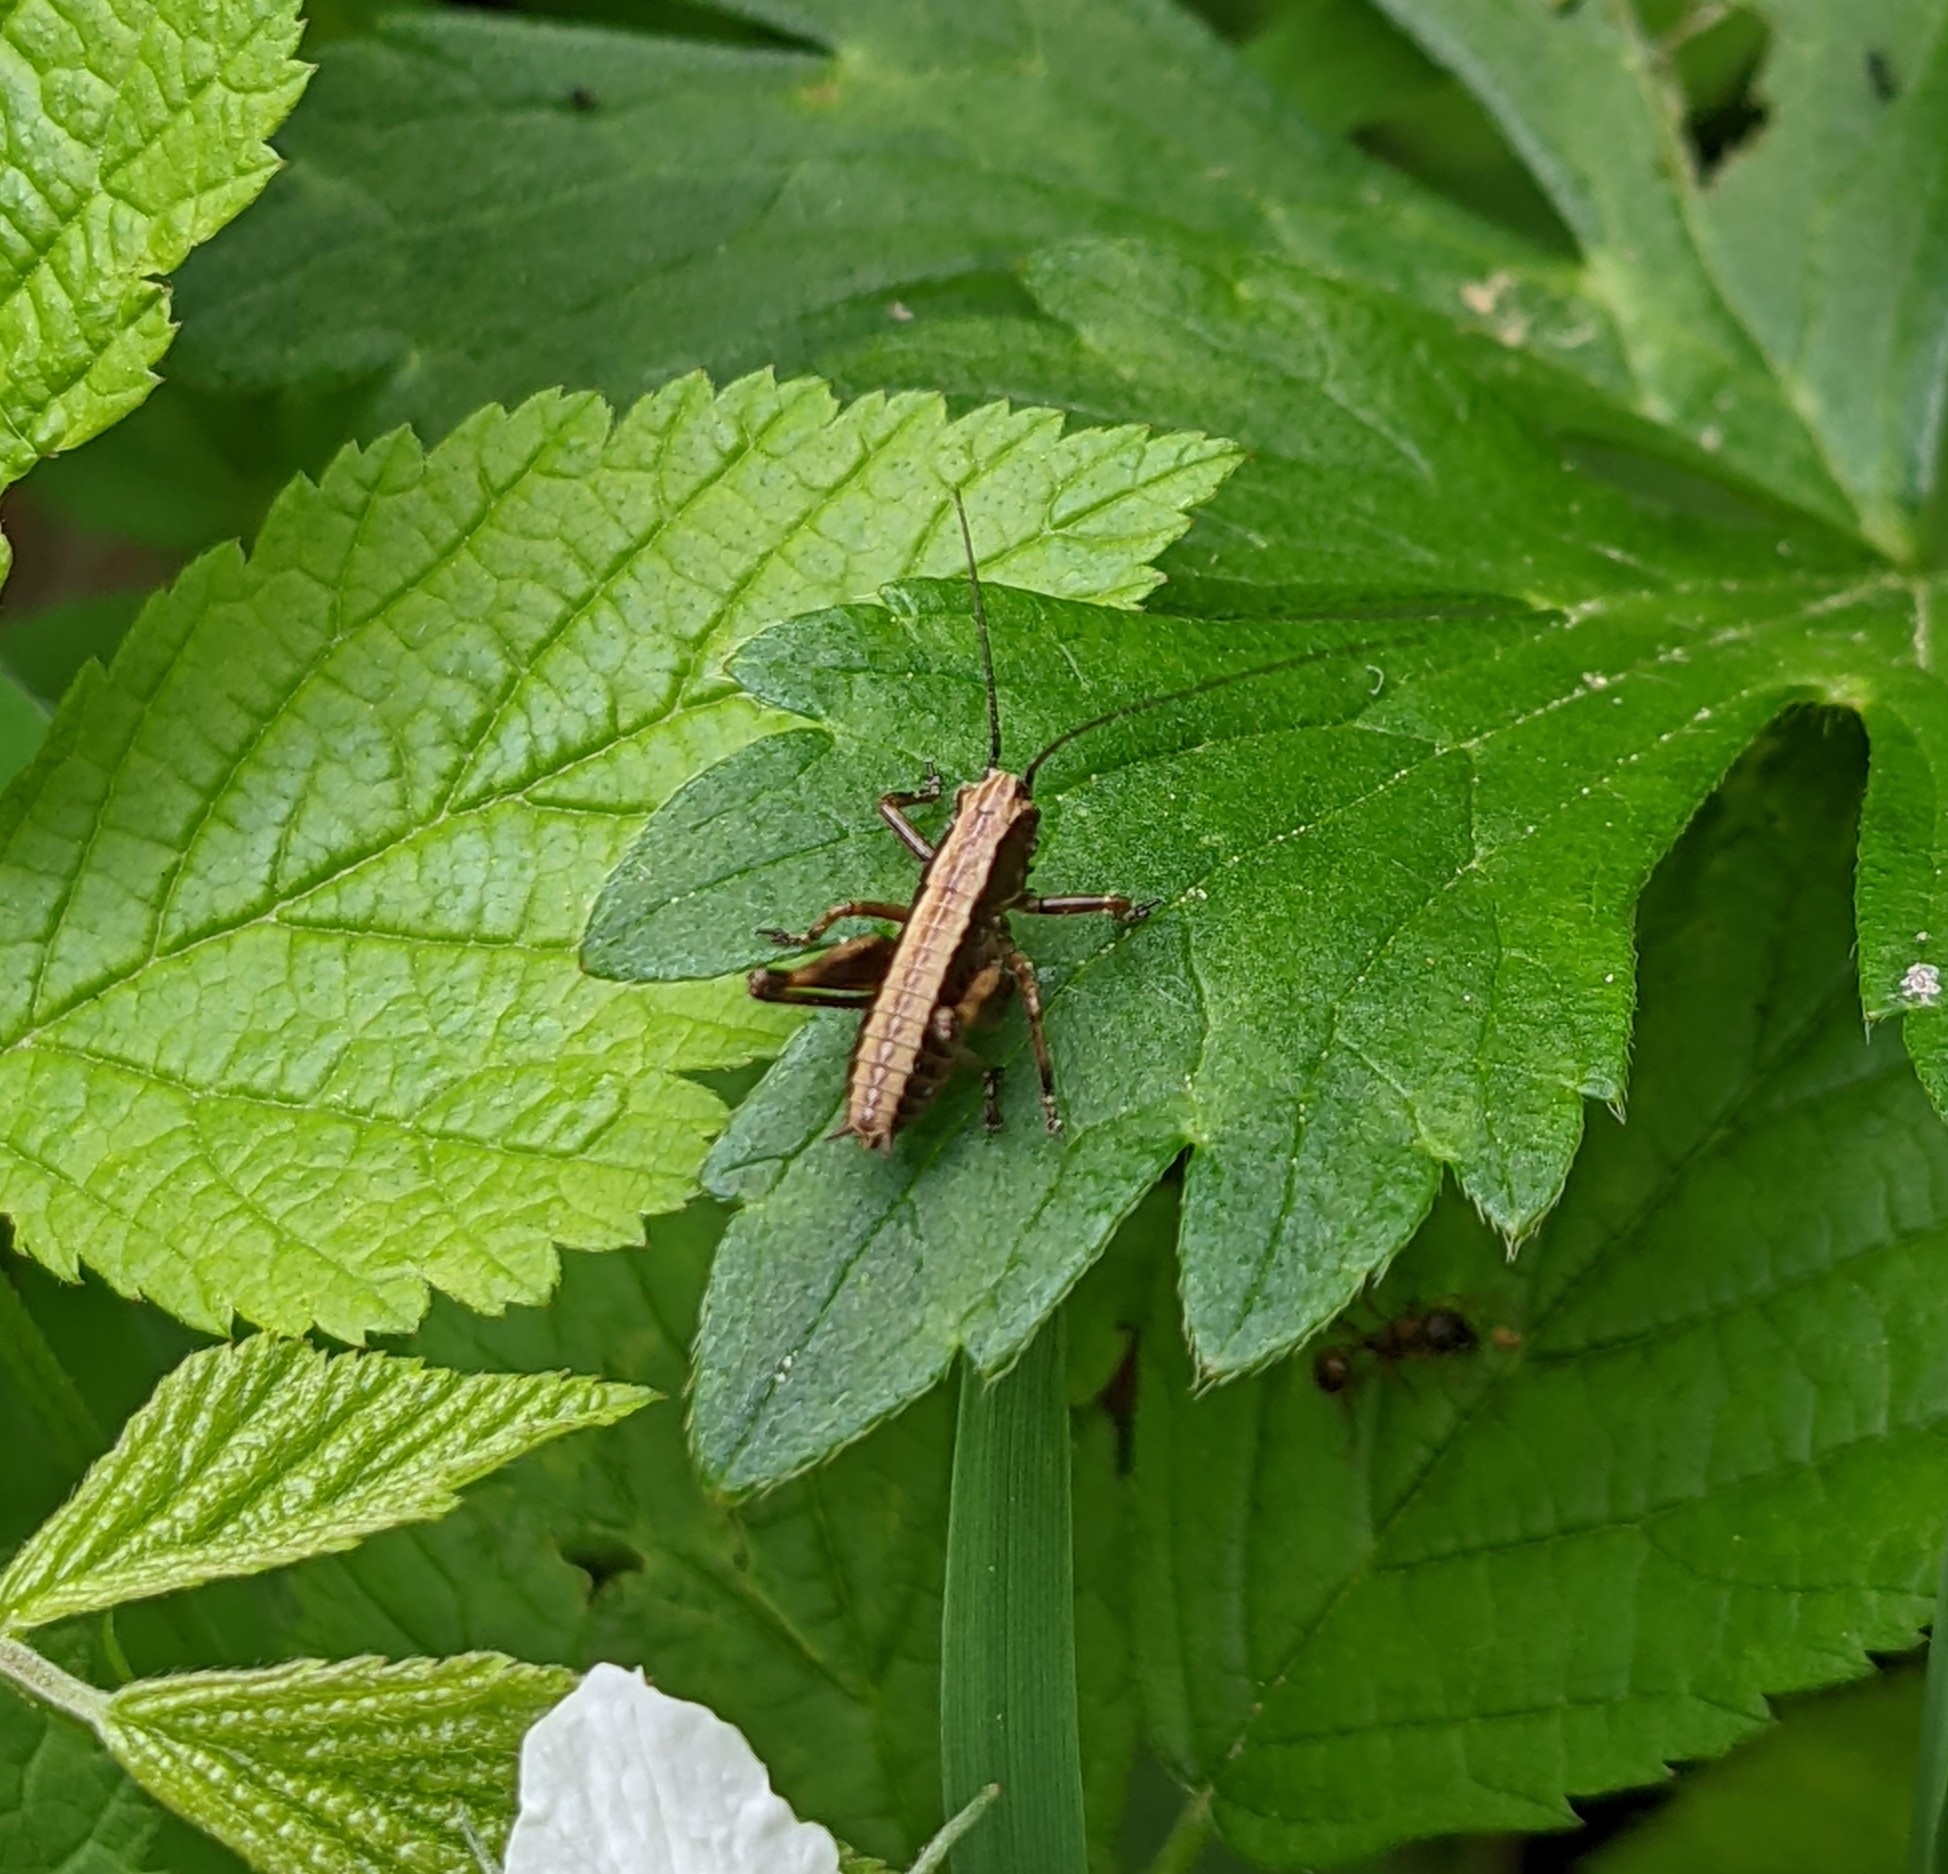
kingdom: Animalia
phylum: Arthropoda
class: Insecta
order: Orthoptera
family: Tettigoniidae
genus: Pholidoptera
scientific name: Pholidoptera griseoaptera
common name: Dark bush-cricket
